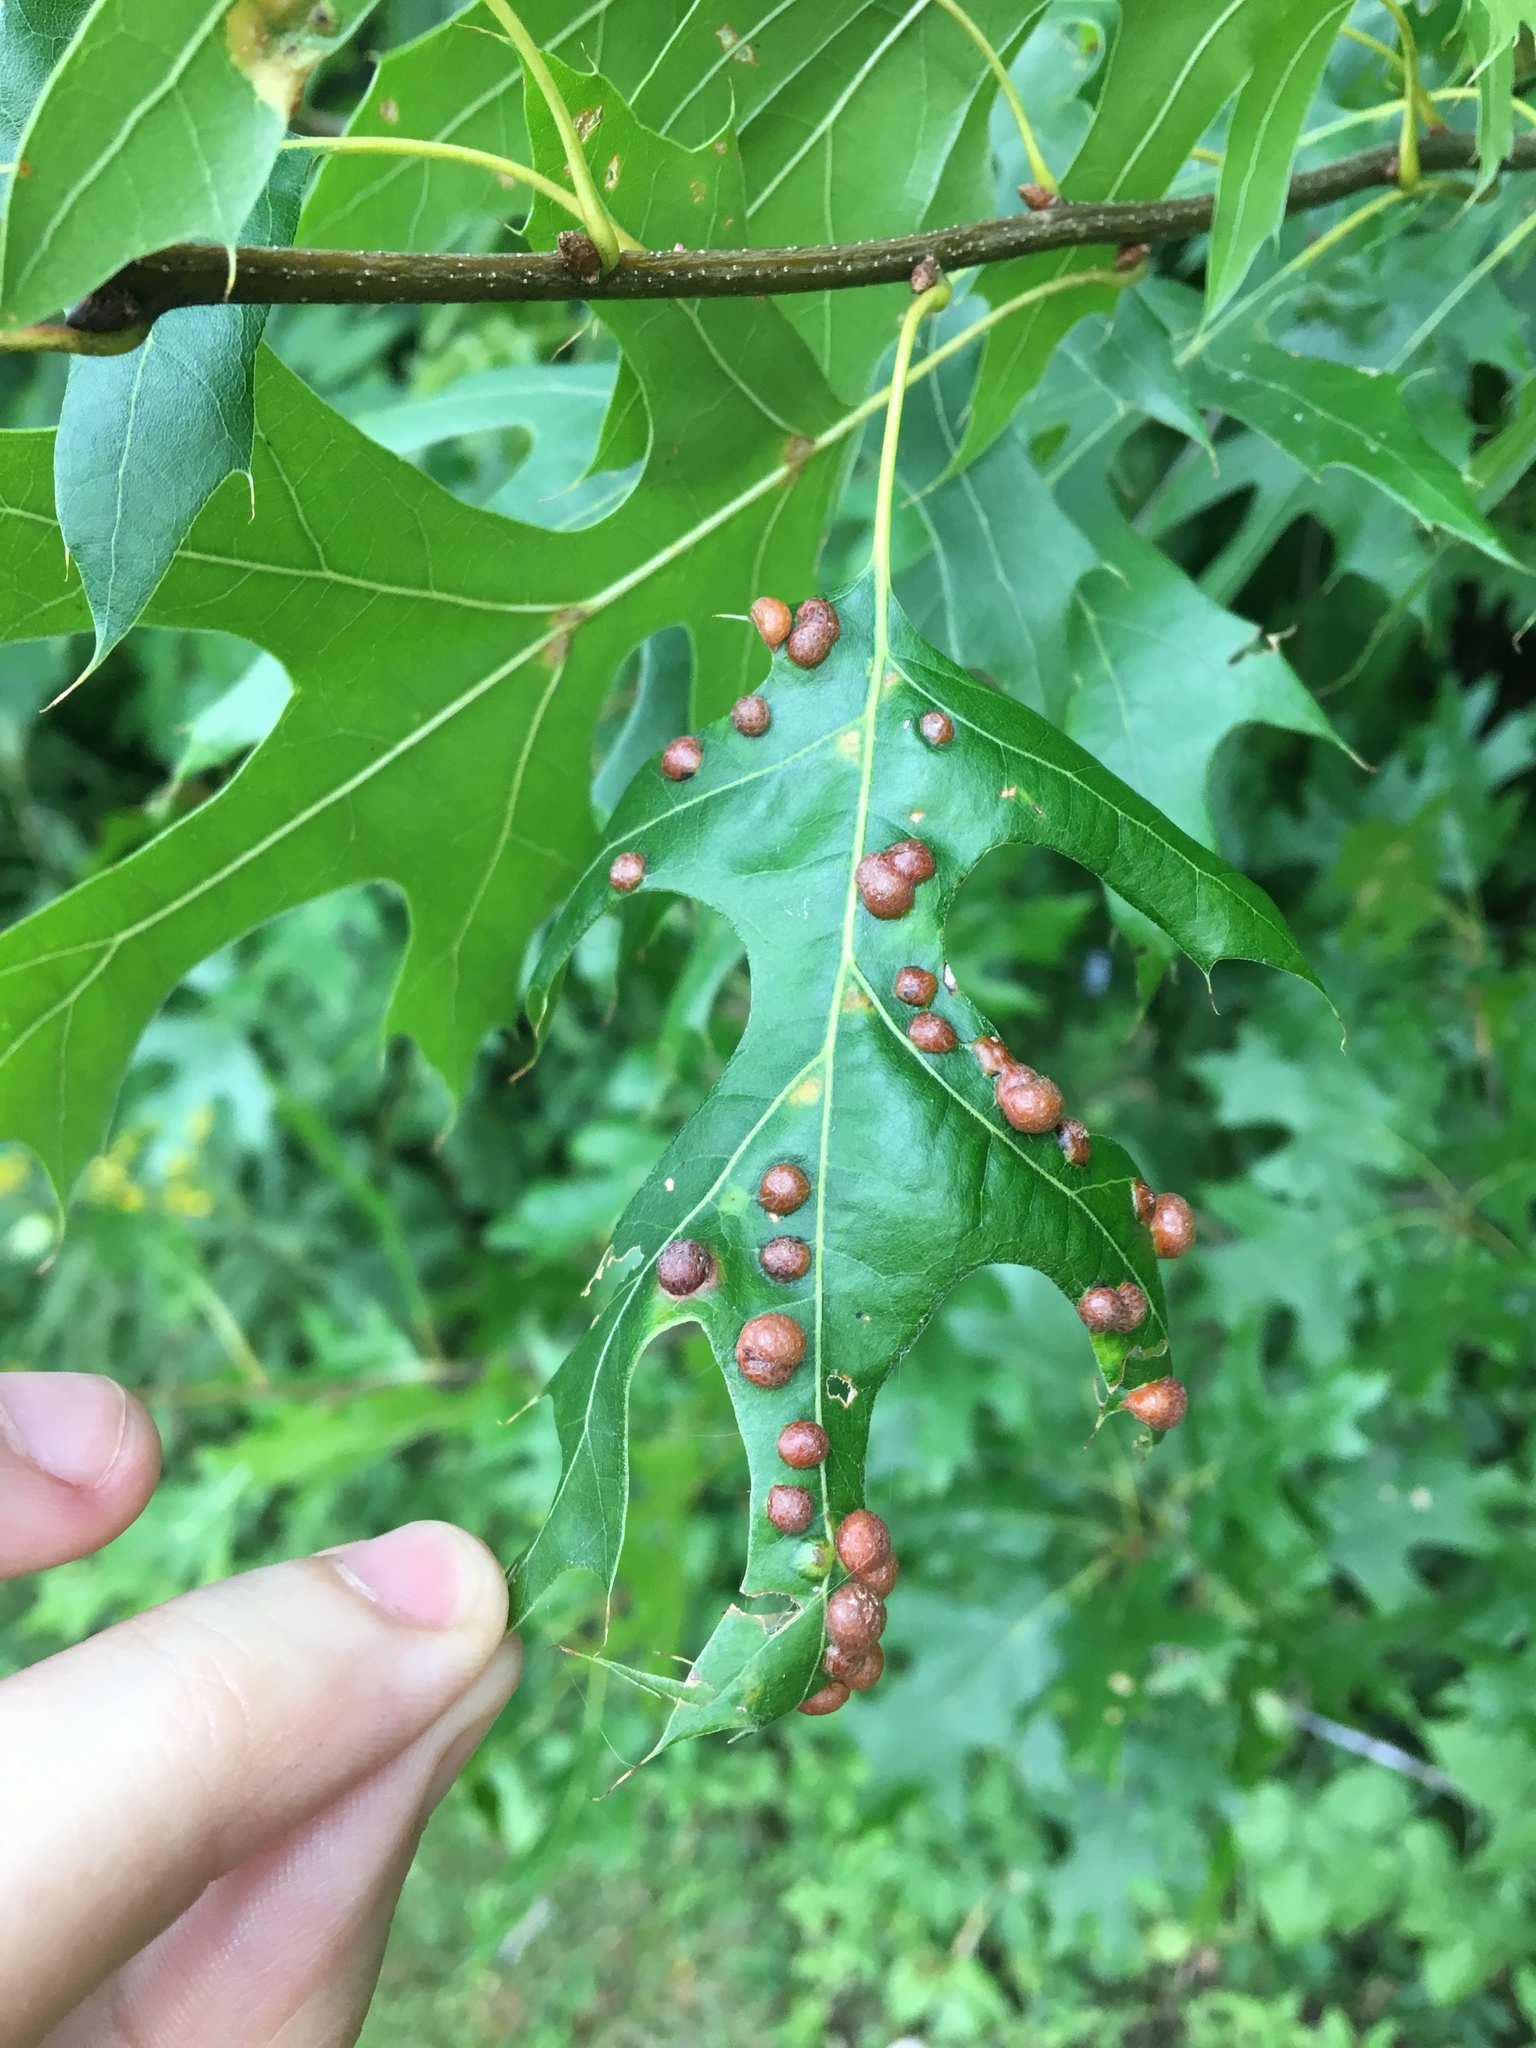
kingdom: Animalia
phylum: Arthropoda
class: Insecta
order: Diptera
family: Cecidomyiidae
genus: Polystepha
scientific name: Polystepha pilulae
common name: Oak leaf gall midge
